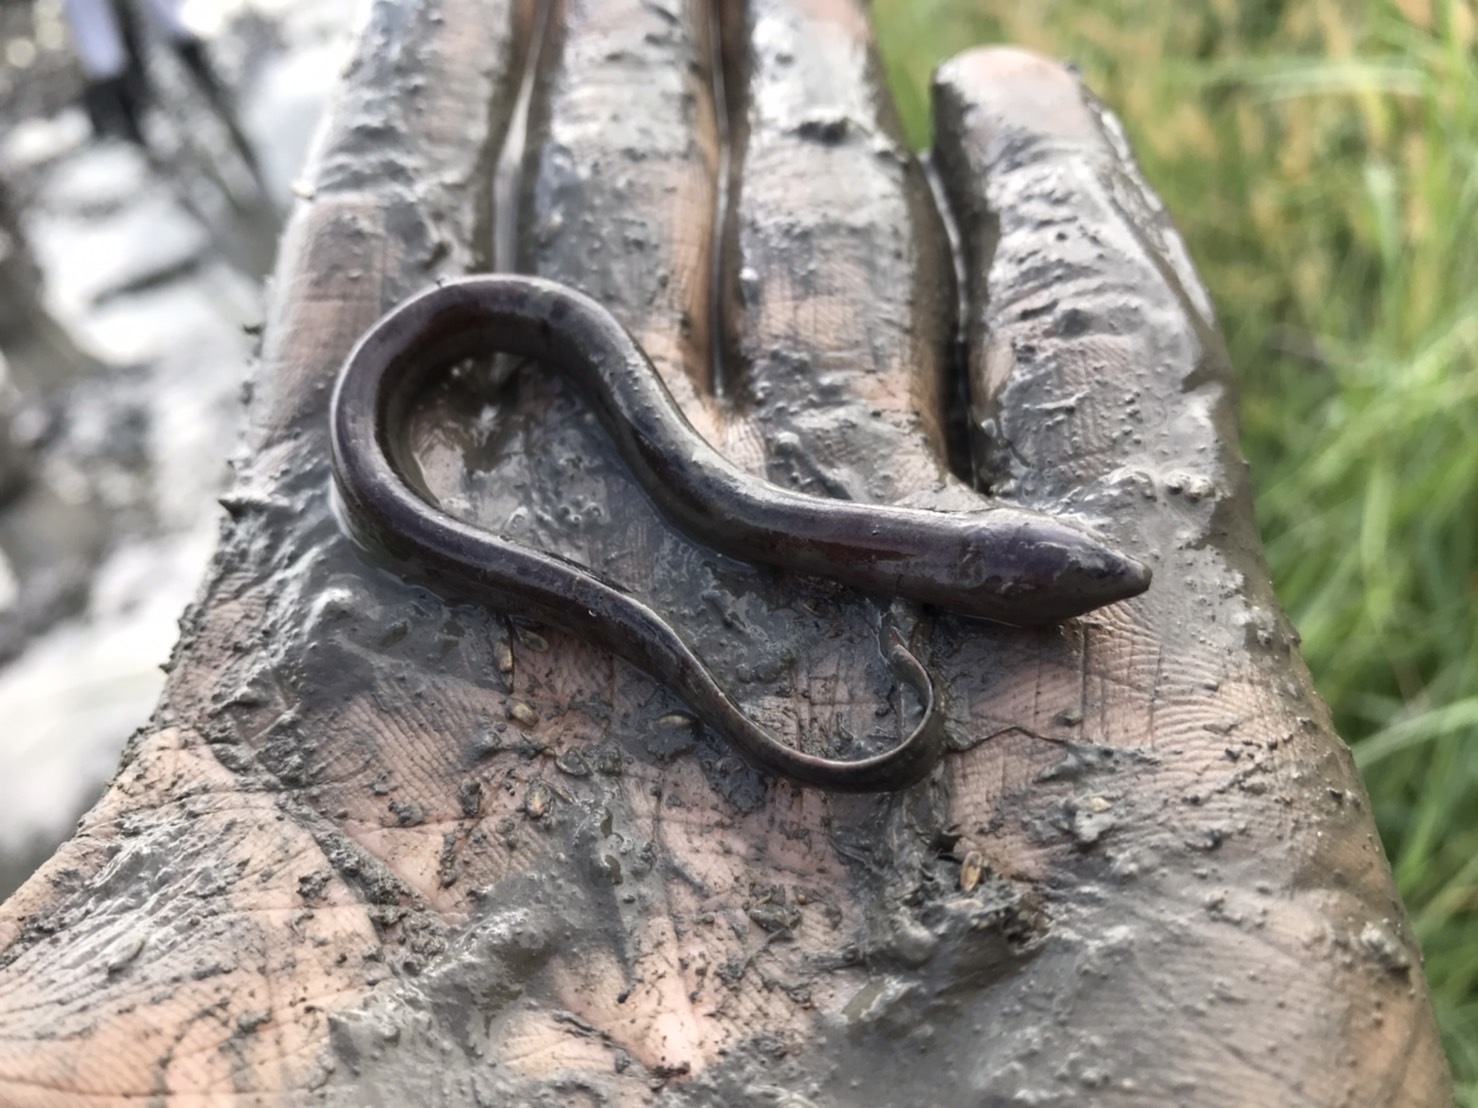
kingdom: Animalia
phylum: Chordata
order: Synbranchiformes
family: Synbranchidae
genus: Monopterus
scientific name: Monopterus albus
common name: Asian swamp eel
